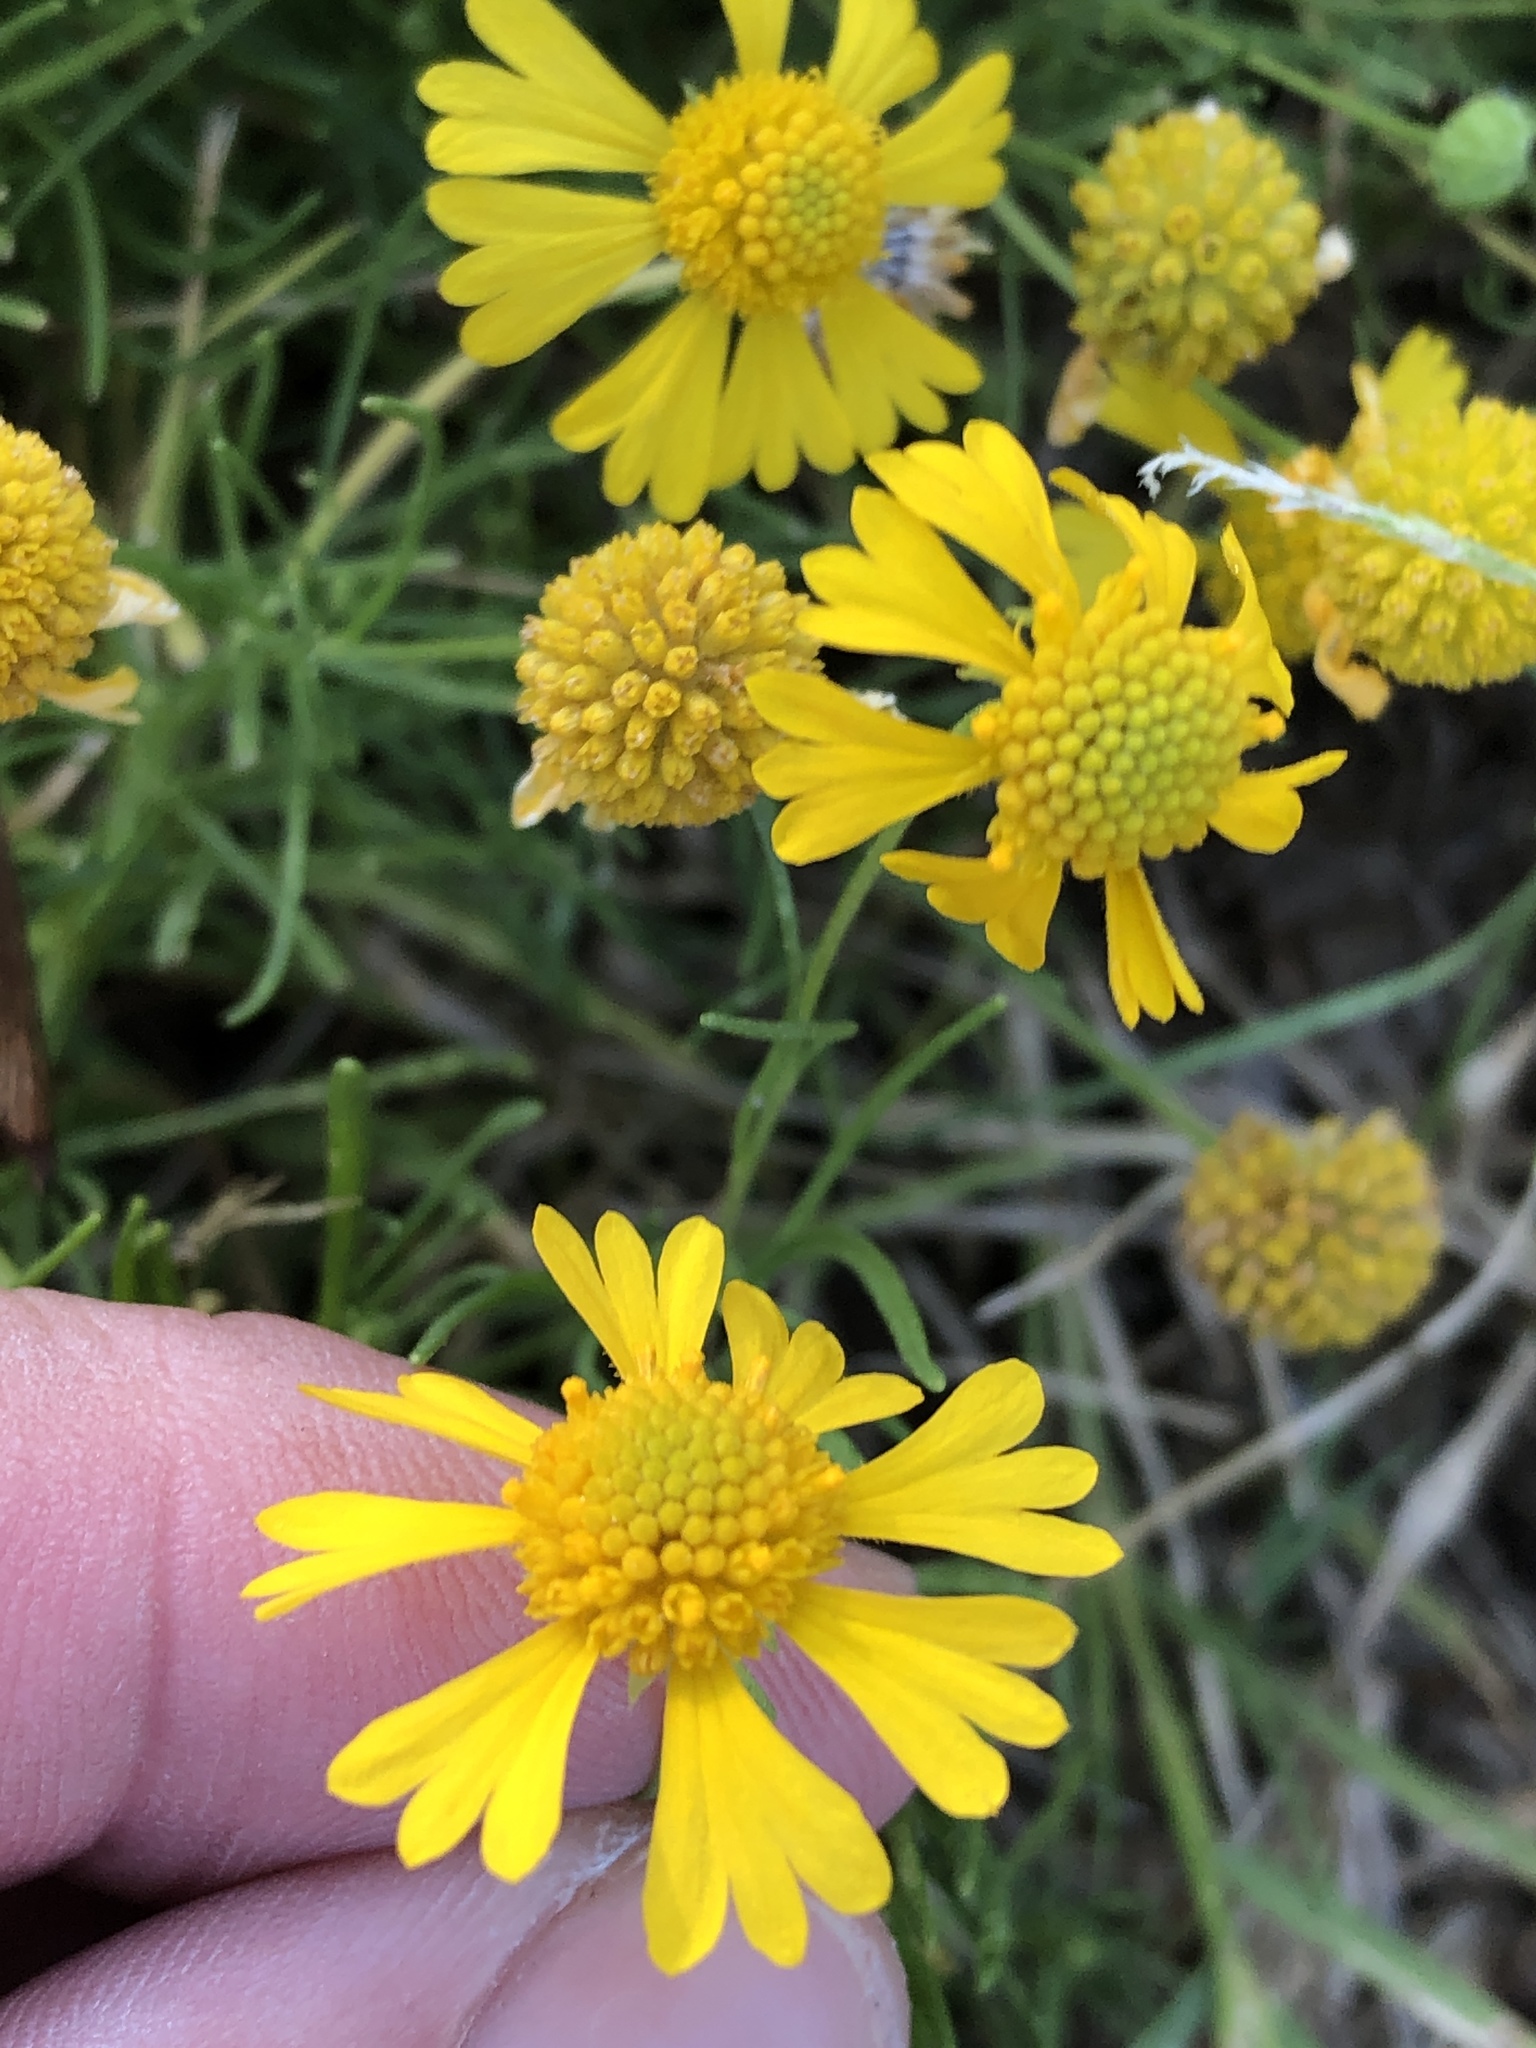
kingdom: Plantae
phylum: Tracheophyta
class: Magnoliopsida
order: Asterales
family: Asteraceae
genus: Helenium
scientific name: Helenium amarum
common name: Bitter sneezeweed
